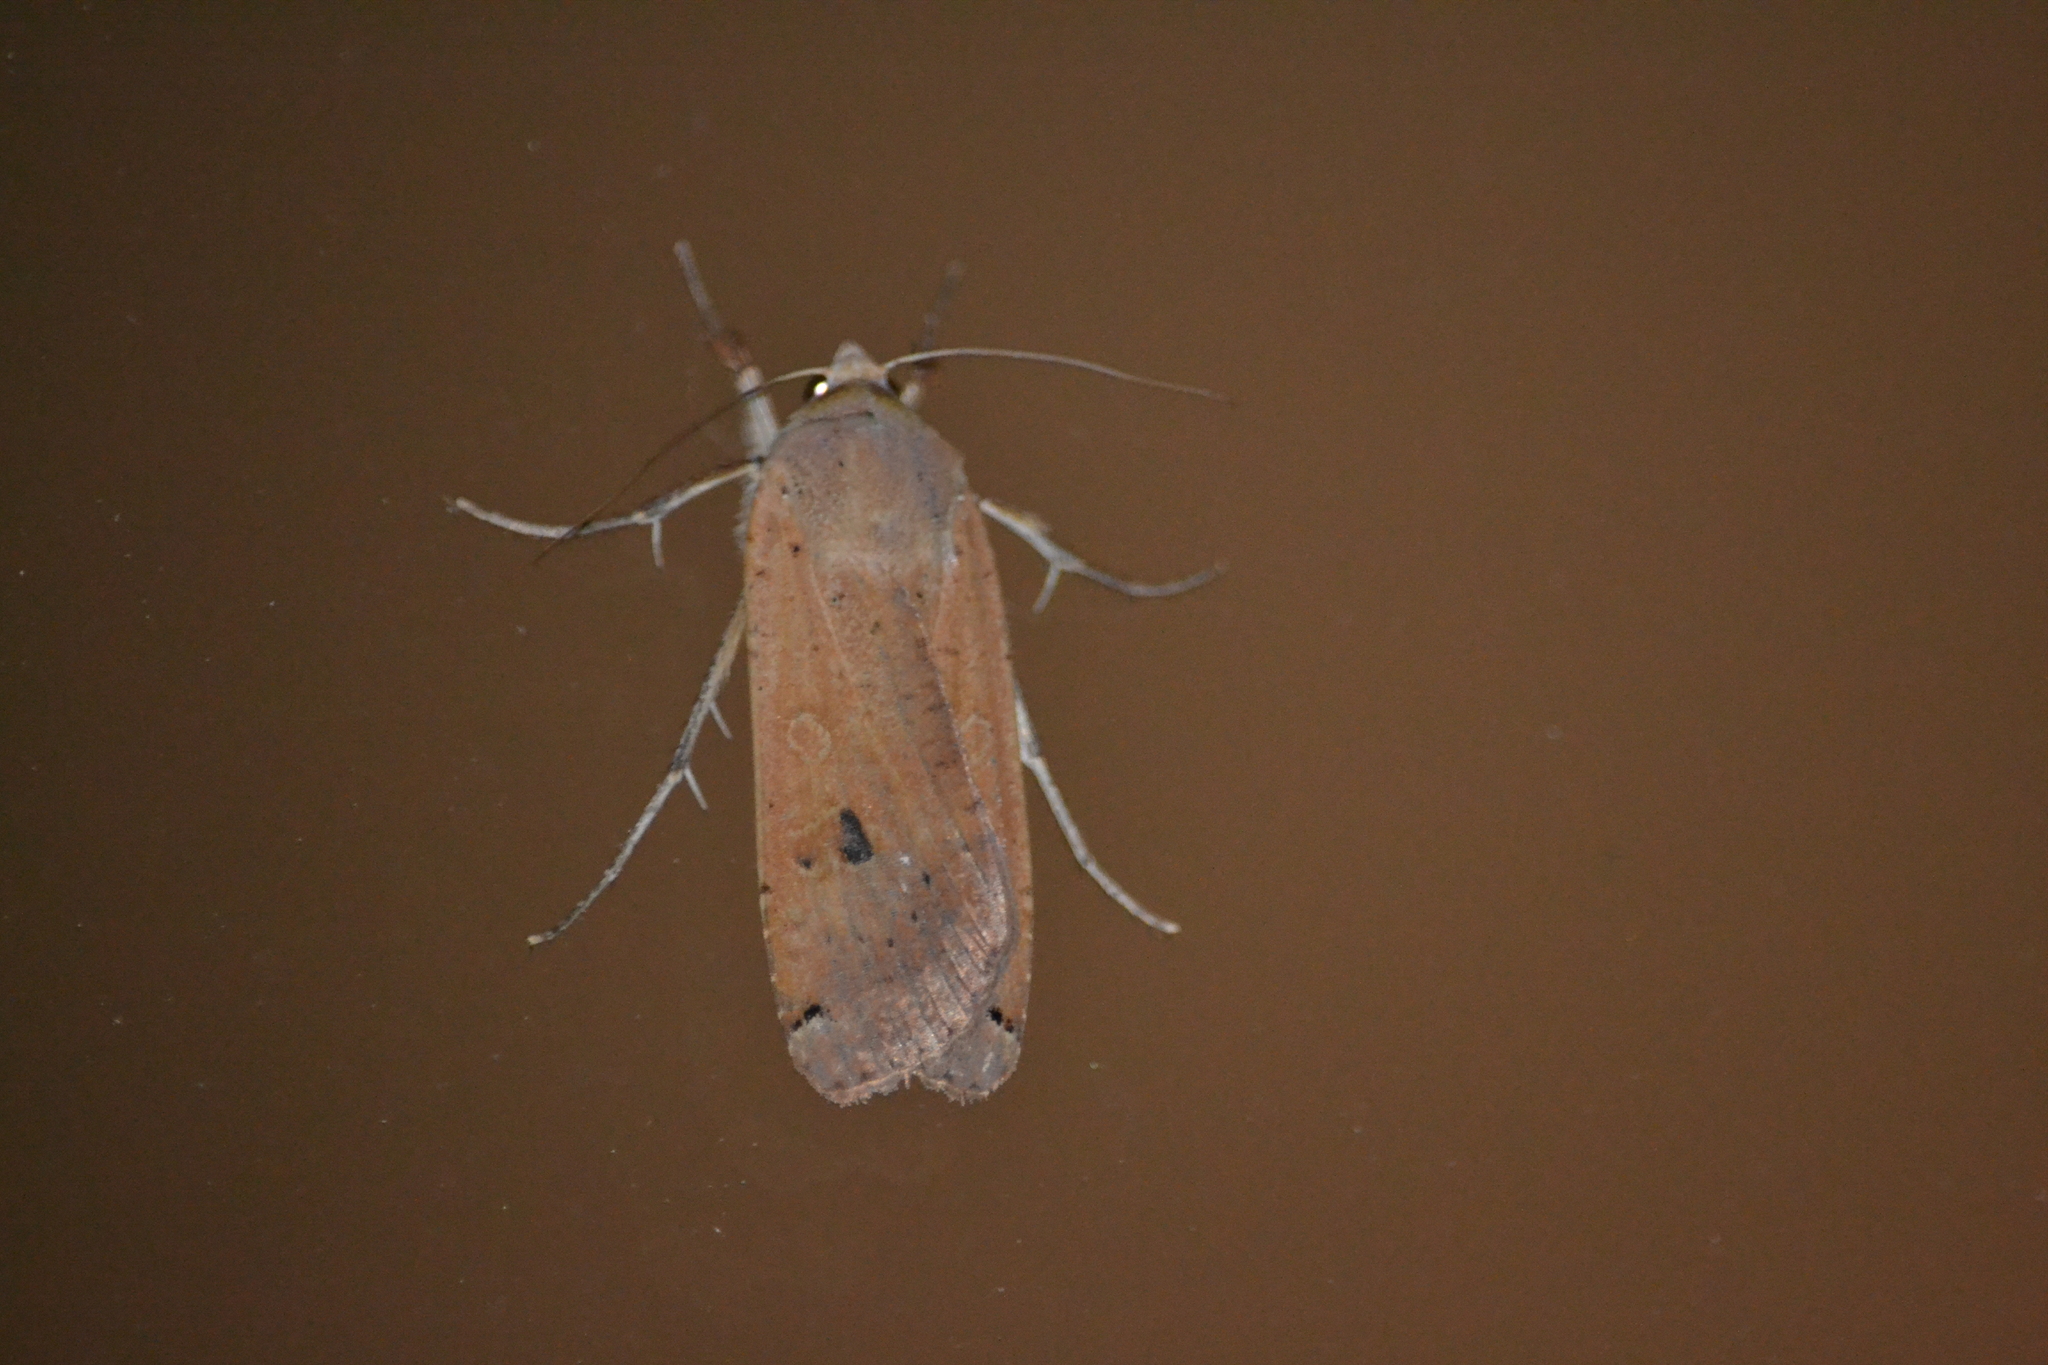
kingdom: Animalia
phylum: Arthropoda
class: Insecta
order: Lepidoptera
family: Noctuidae
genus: Noctua
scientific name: Noctua pronuba
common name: Large yellow underwing
